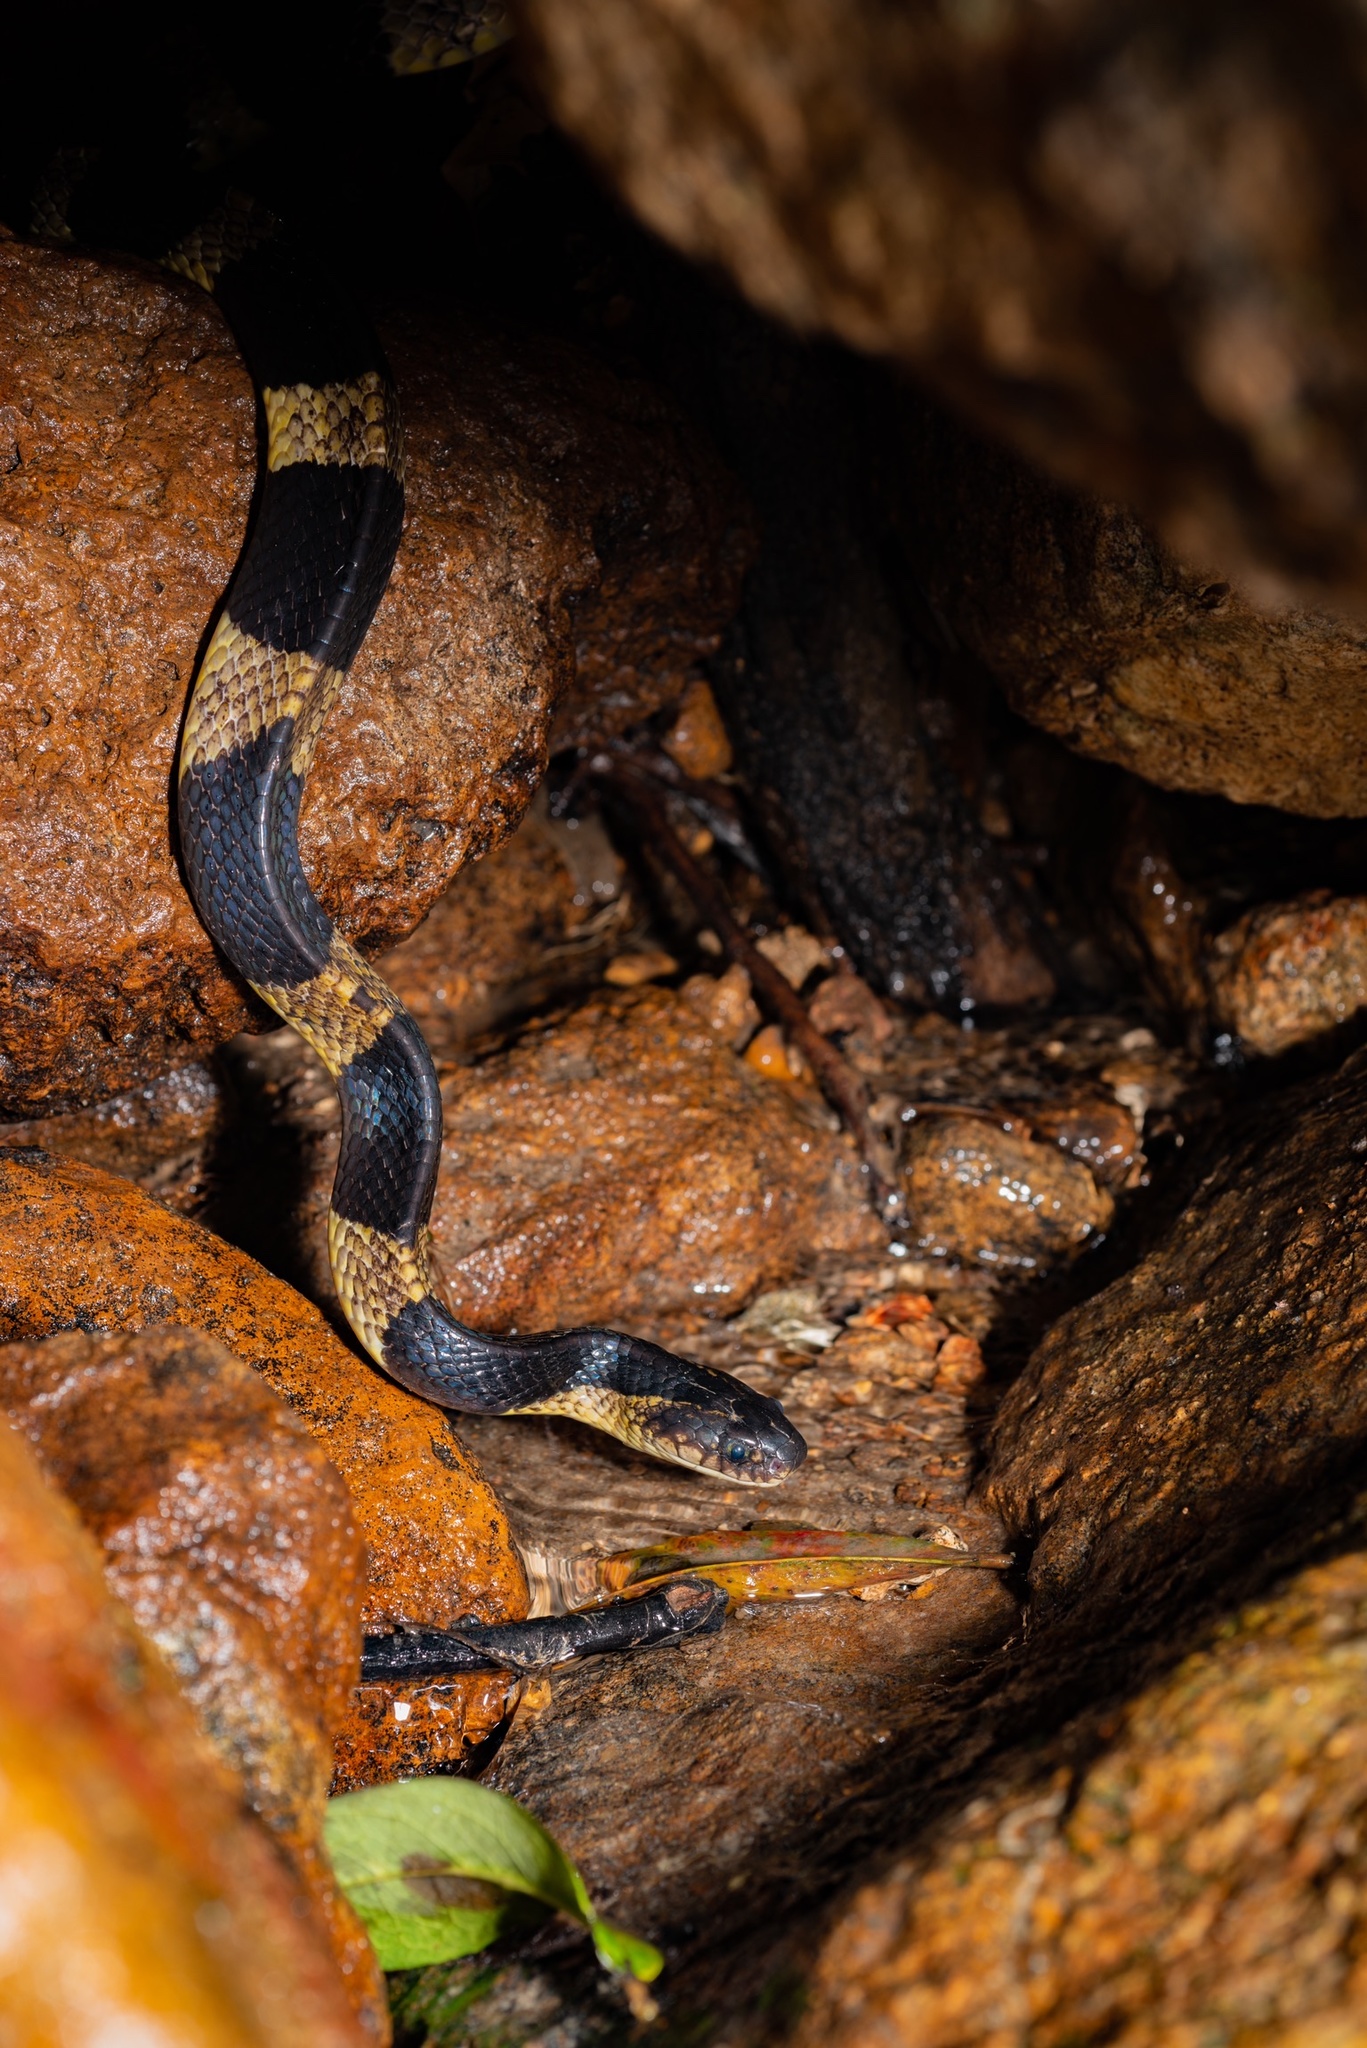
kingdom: Animalia
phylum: Chordata
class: Squamata
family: Elapidae
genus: Bungarus
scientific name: Bungarus fasciatus
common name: Banded krait
